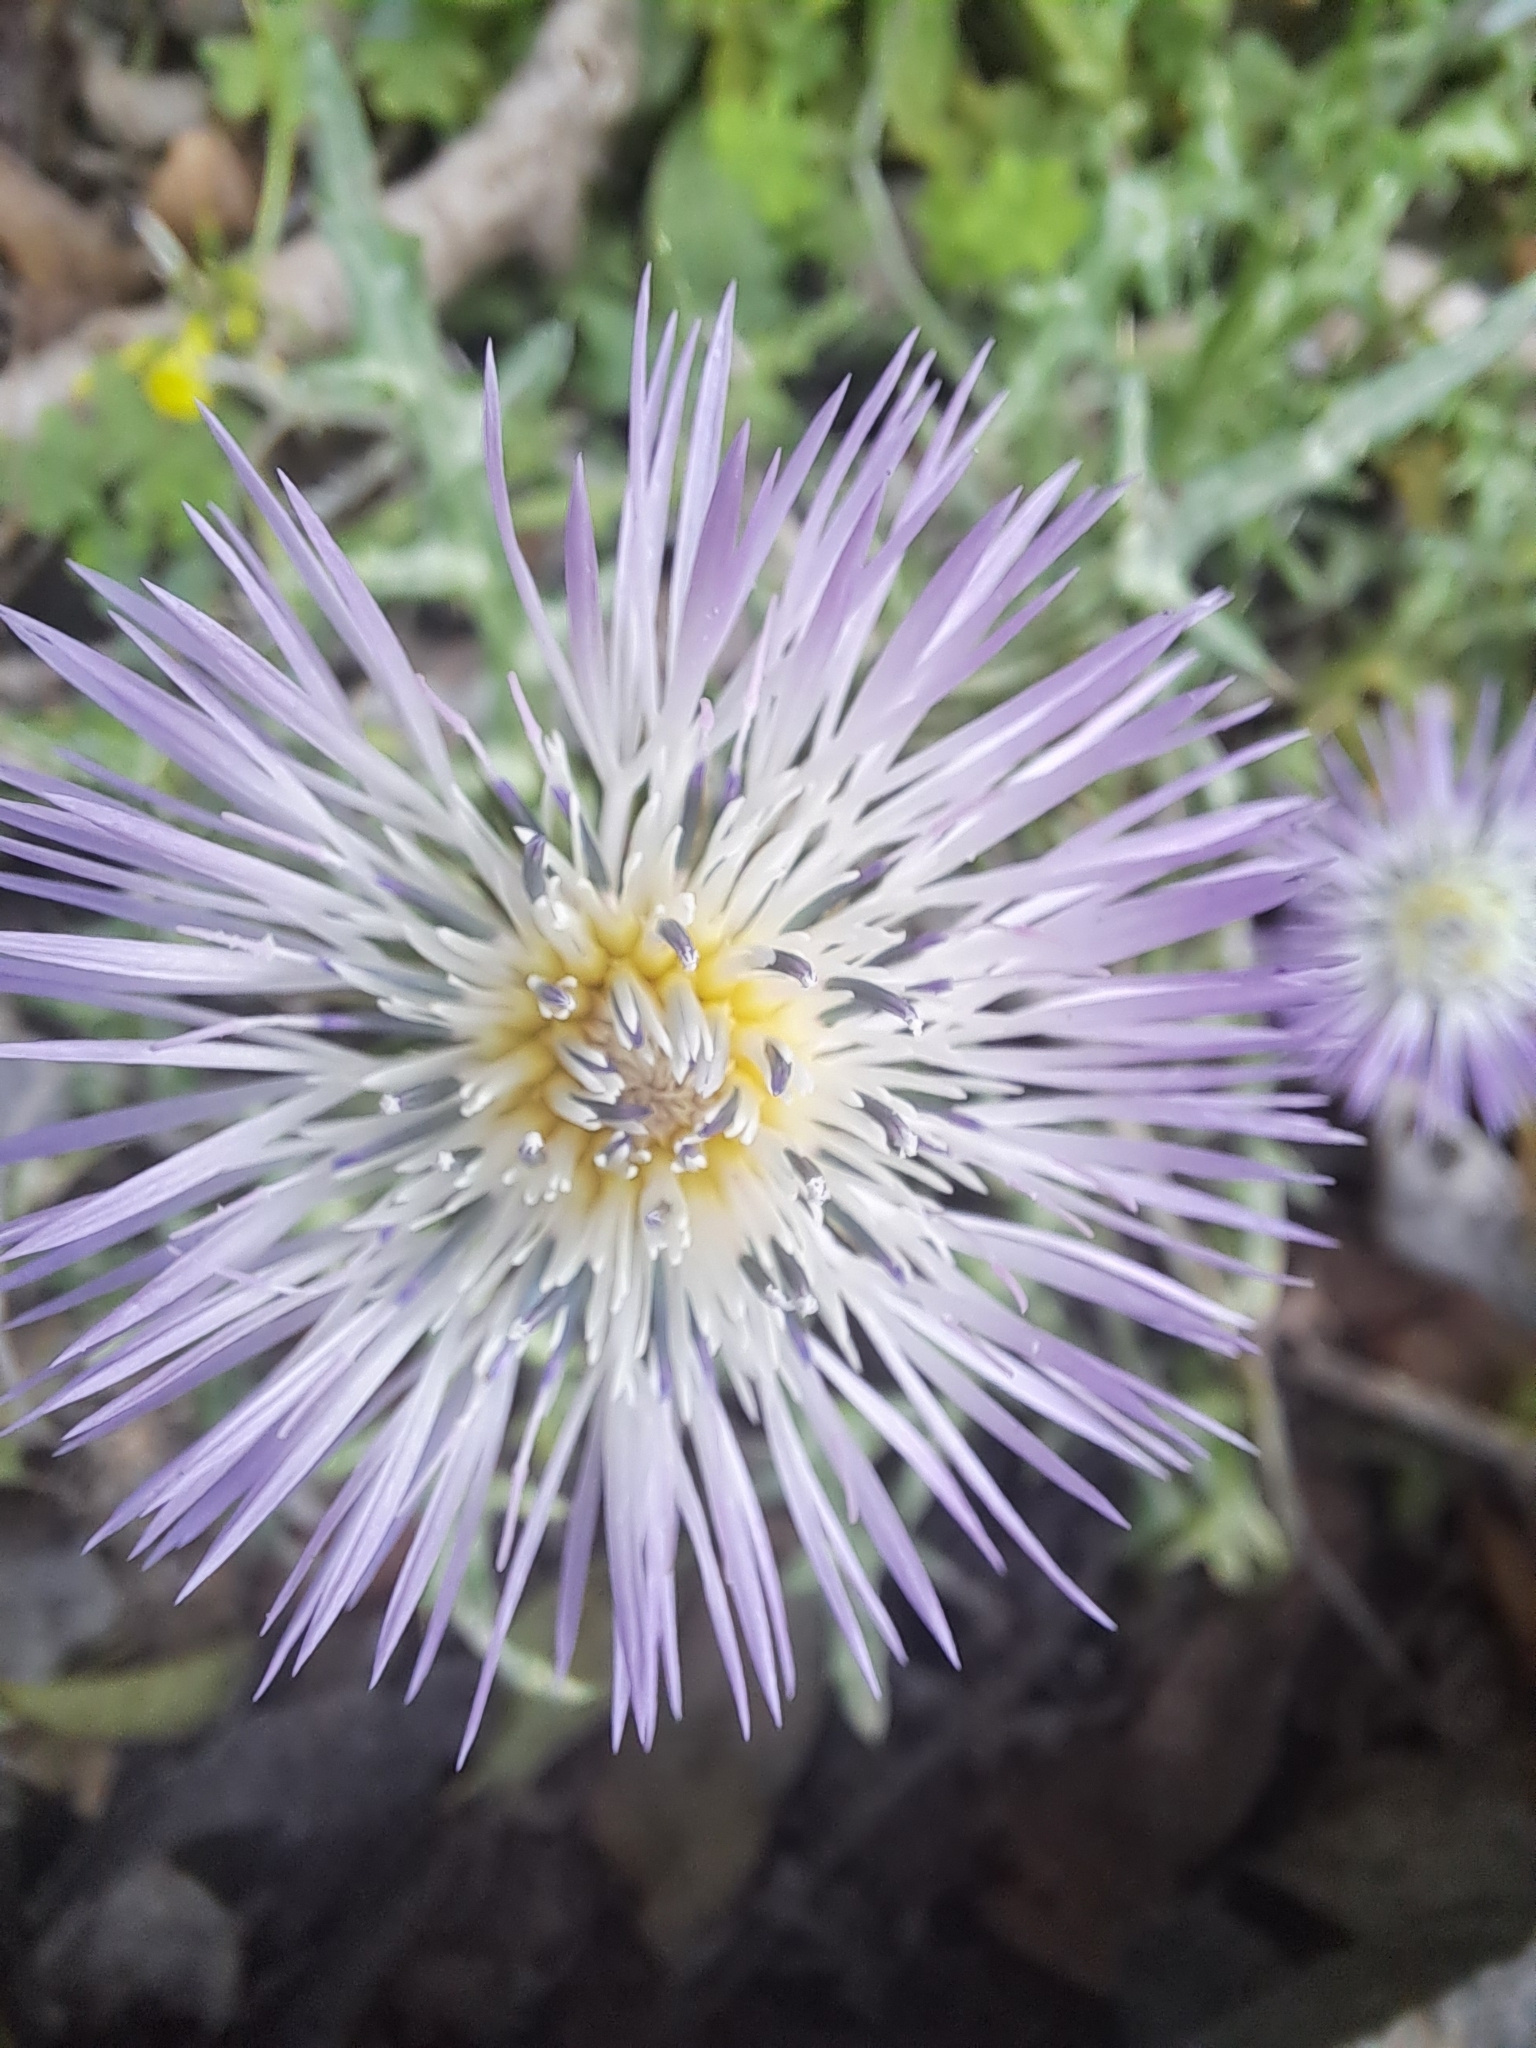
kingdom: Plantae
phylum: Tracheophyta
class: Magnoliopsida
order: Asterales
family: Asteraceae
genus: Galactites
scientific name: Galactites tomentosa
